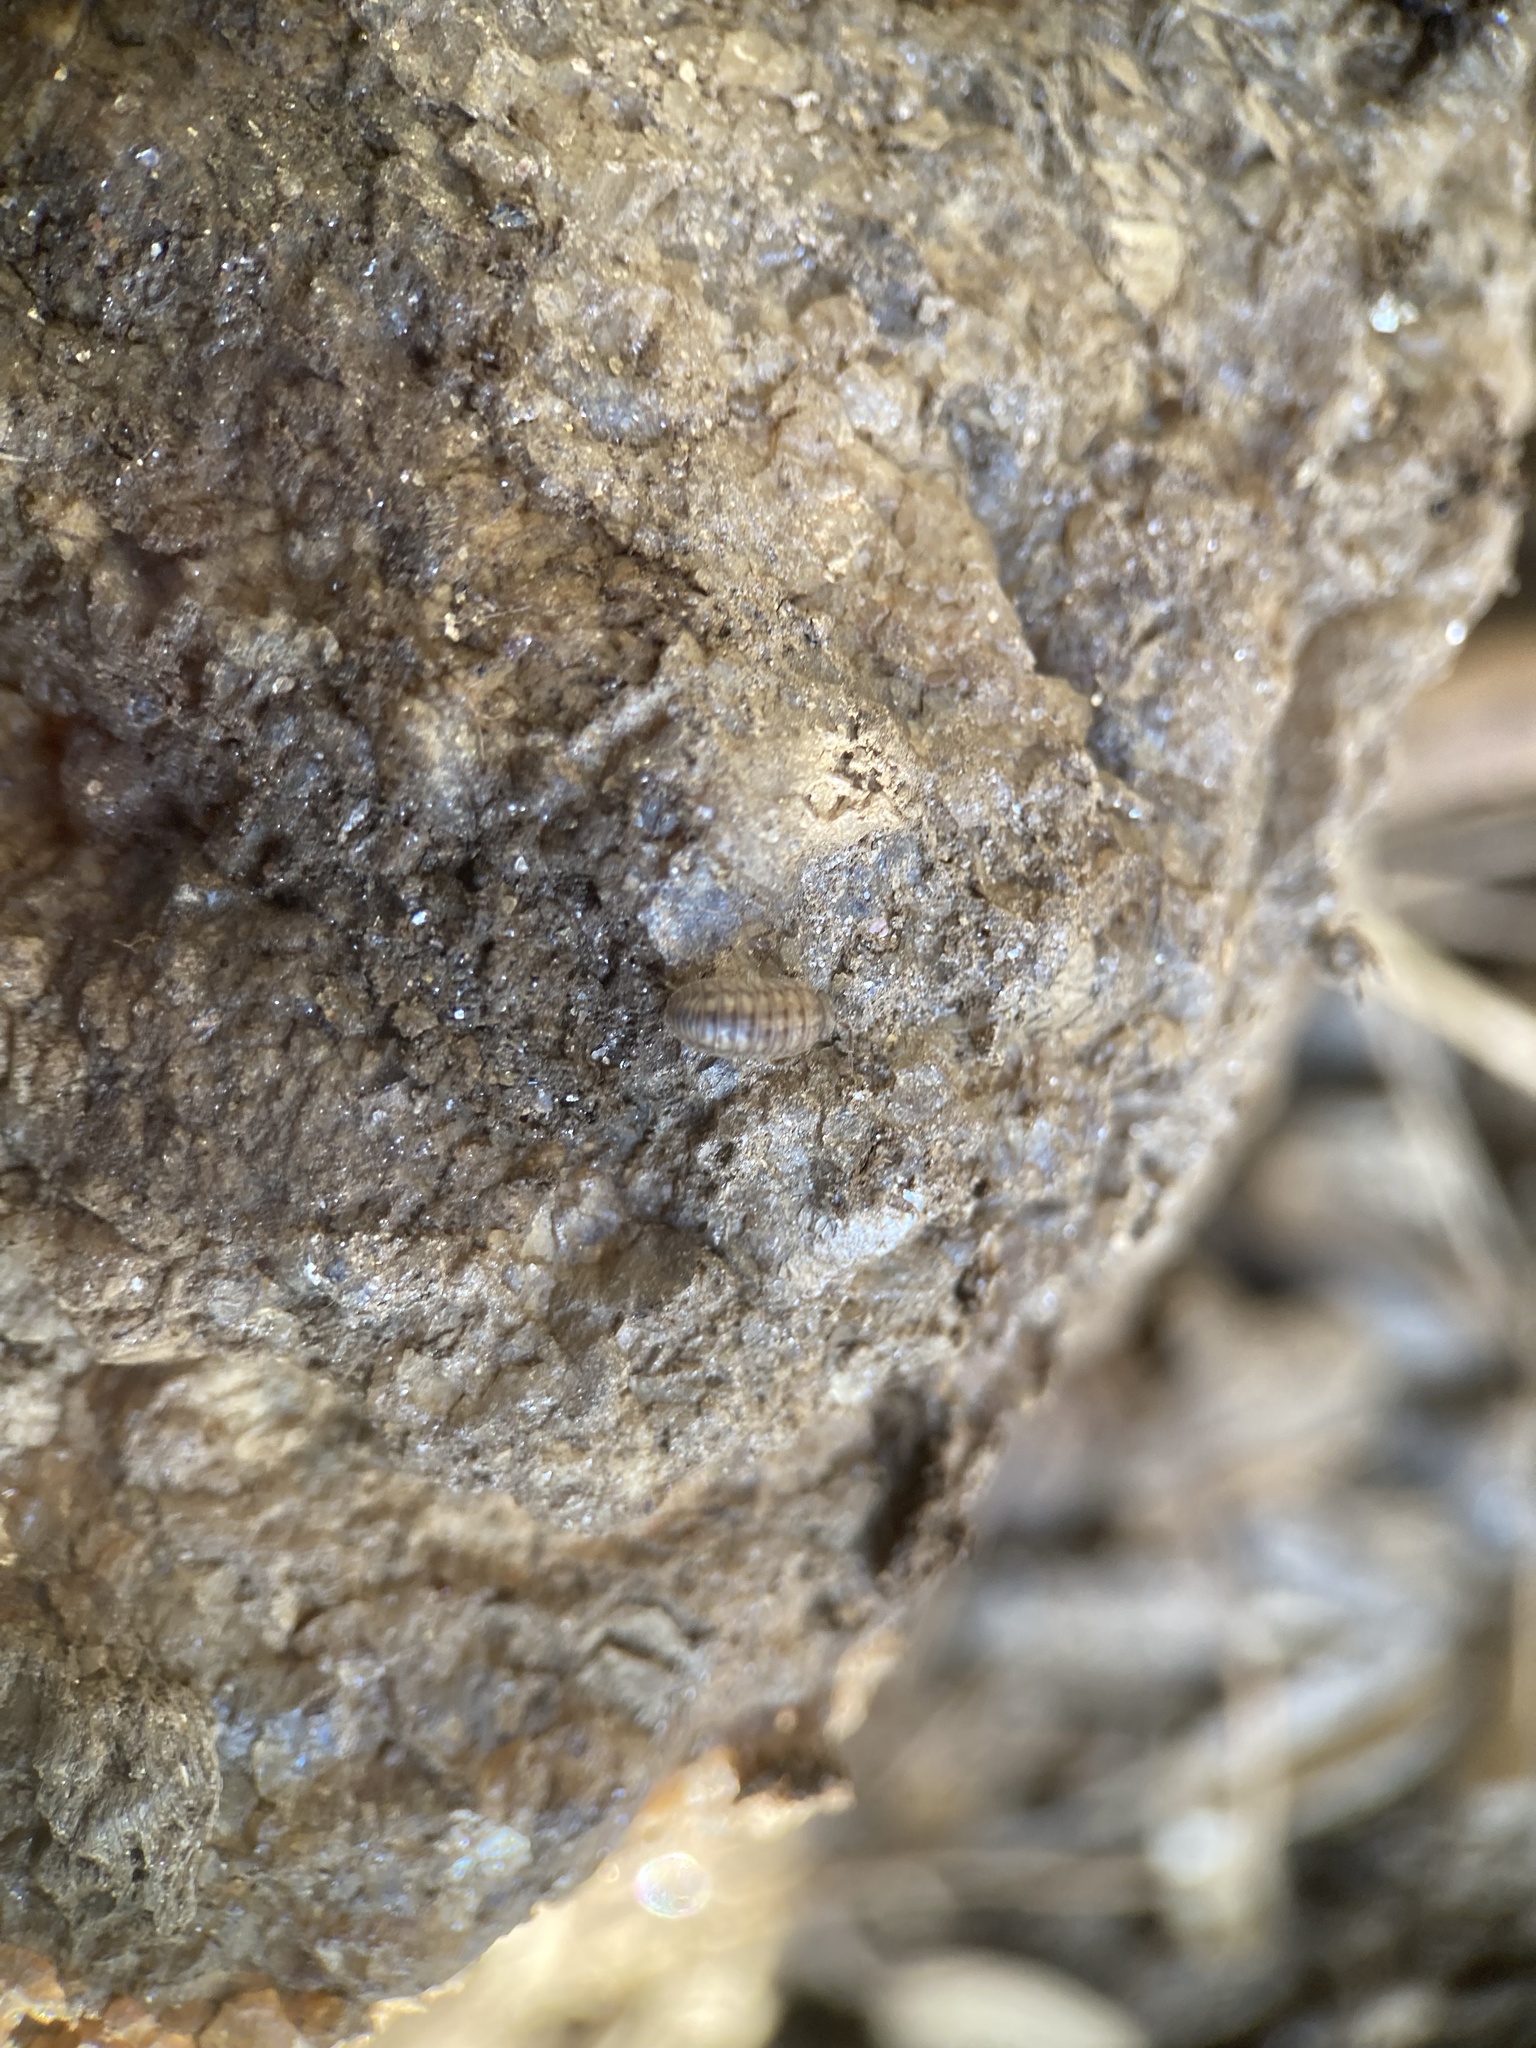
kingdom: Animalia
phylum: Arthropoda
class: Malacostraca
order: Isopoda
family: Armadillidiidae
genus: Armadillidium
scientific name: Armadillidium nasatum
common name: Isopod
